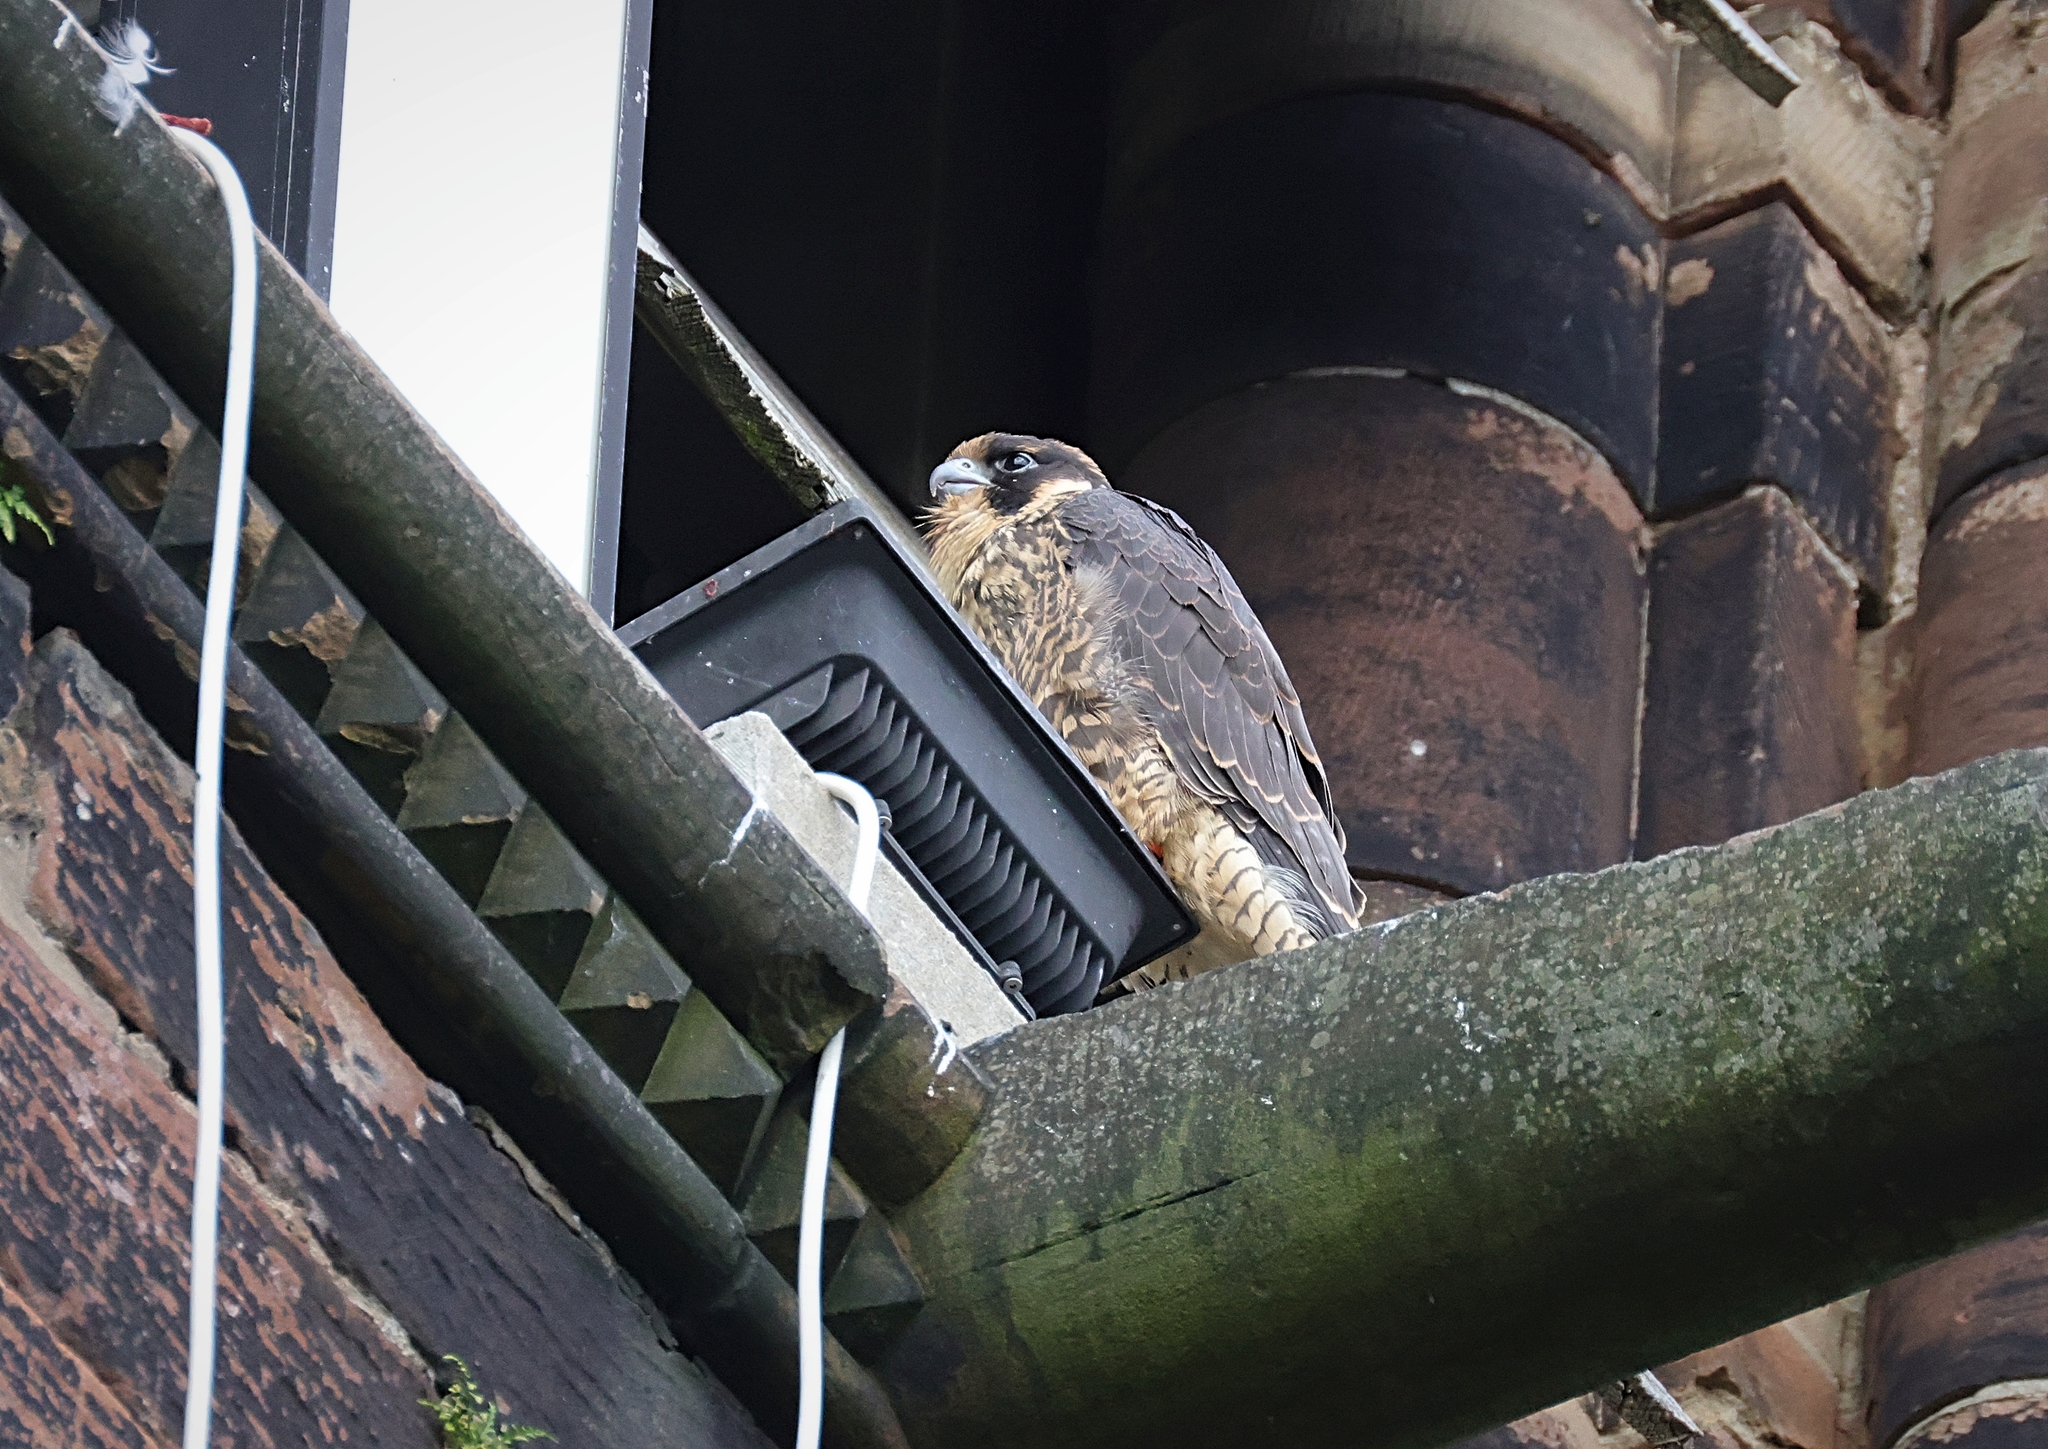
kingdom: Animalia
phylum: Chordata
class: Aves
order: Falconiformes
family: Falconidae
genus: Falco
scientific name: Falco peregrinus
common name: Peregrine falcon
